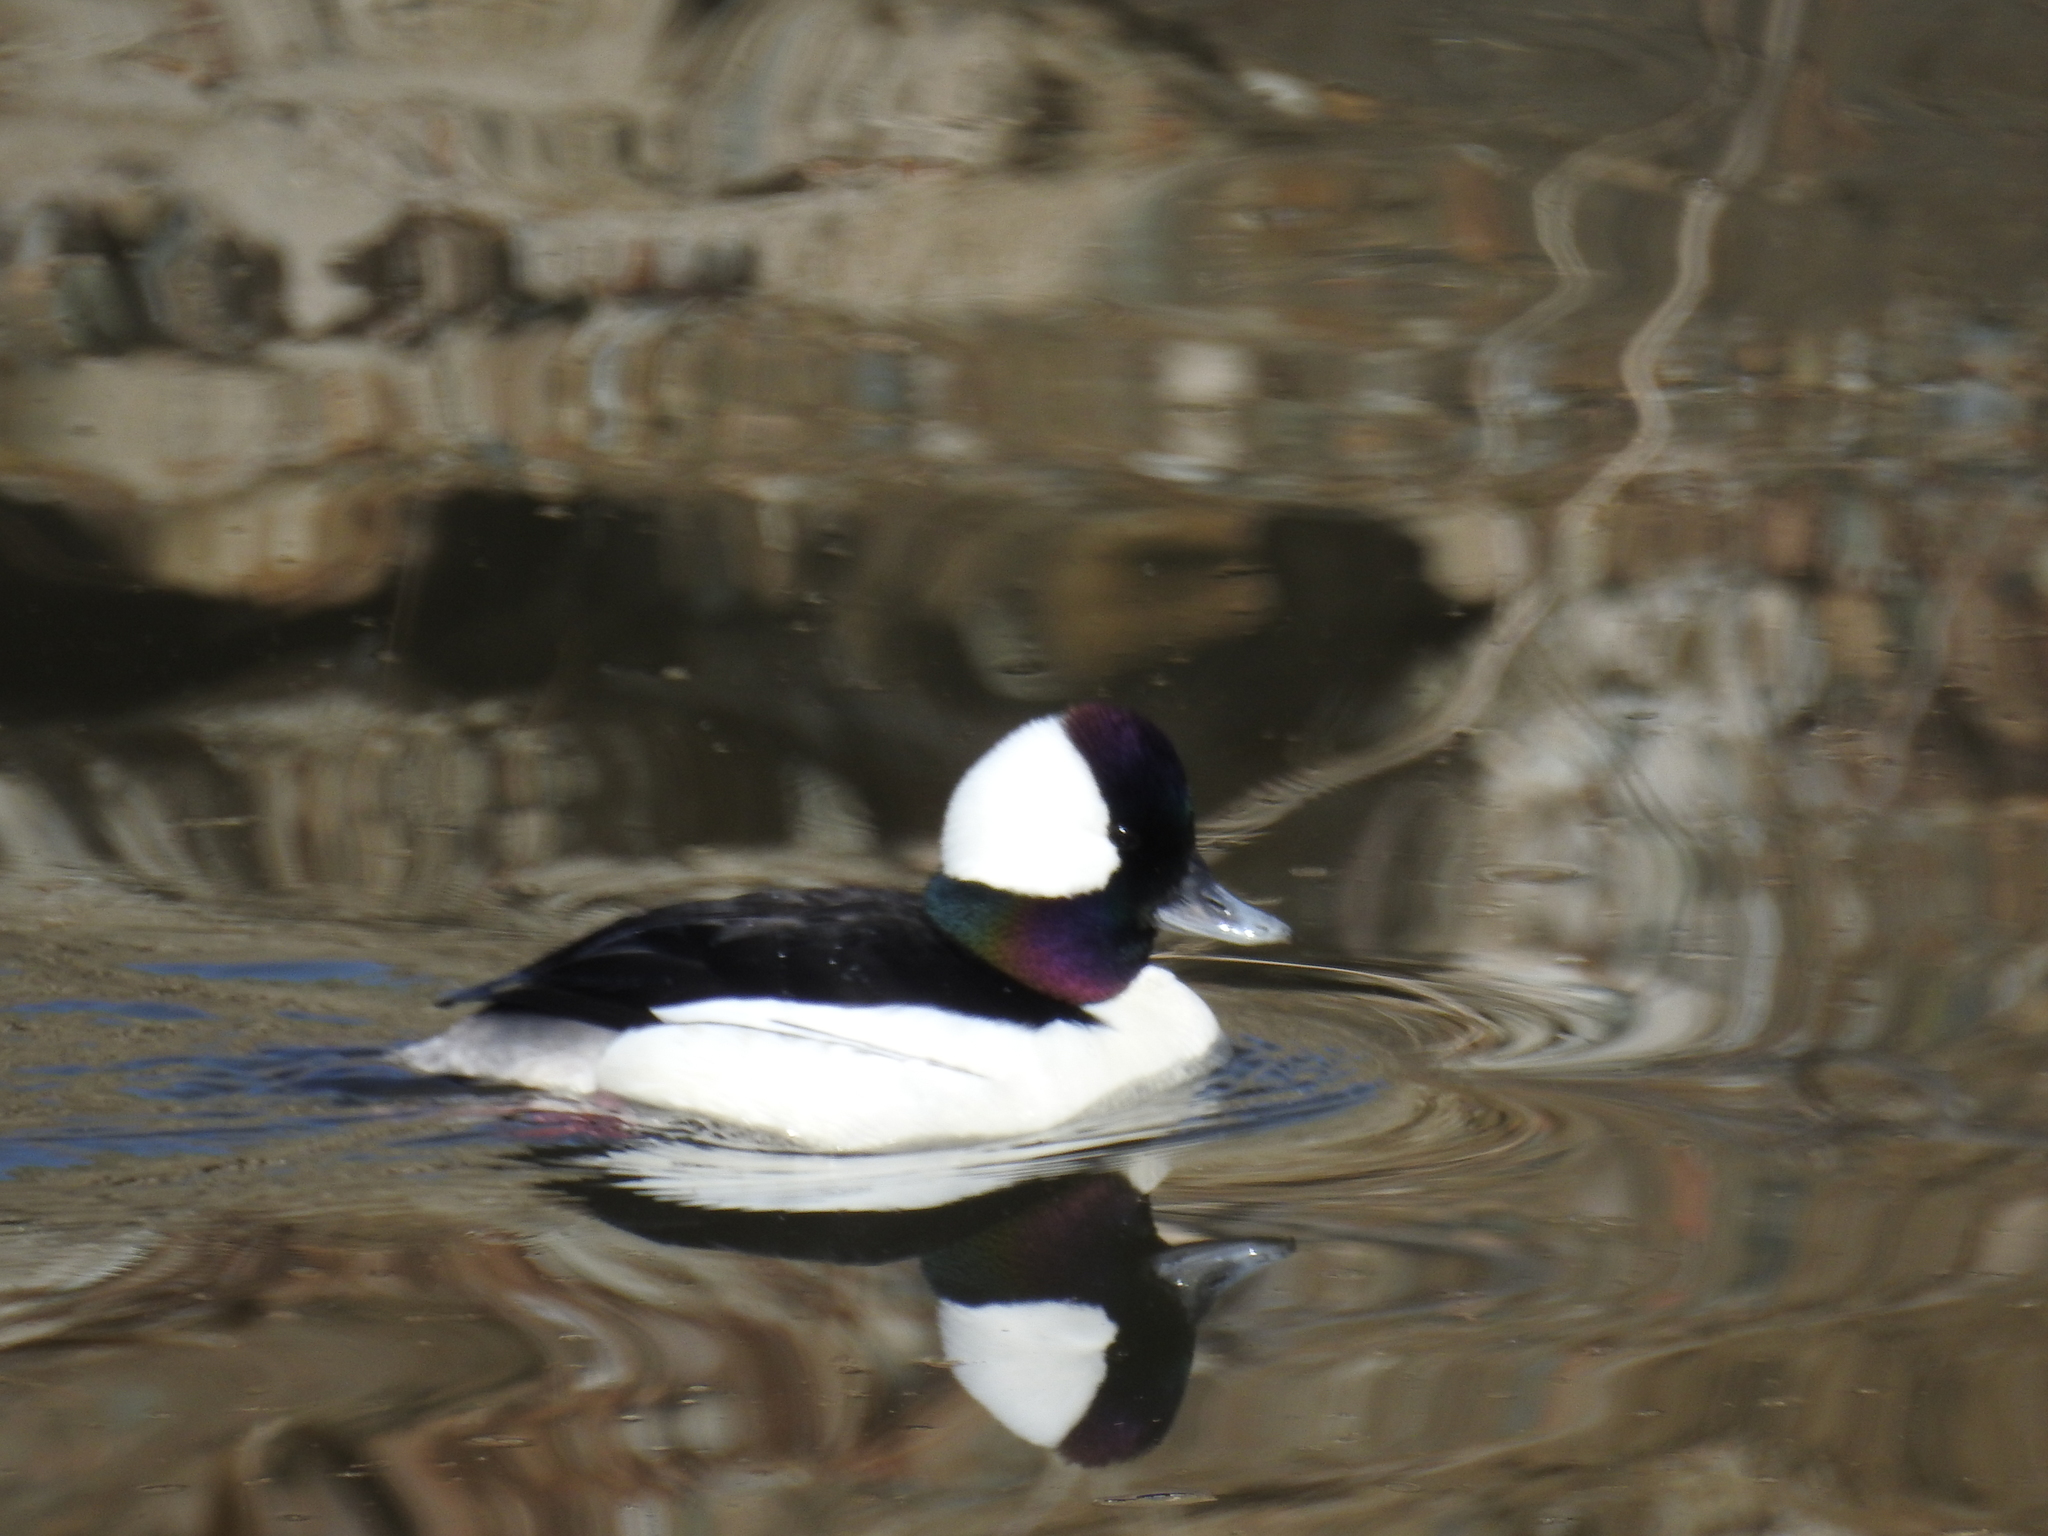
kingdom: Animalia
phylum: Chordata
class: Aves
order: Anseriformes
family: Anatidae
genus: Bucephala
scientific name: Bucephala albeola
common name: Bufflehead
